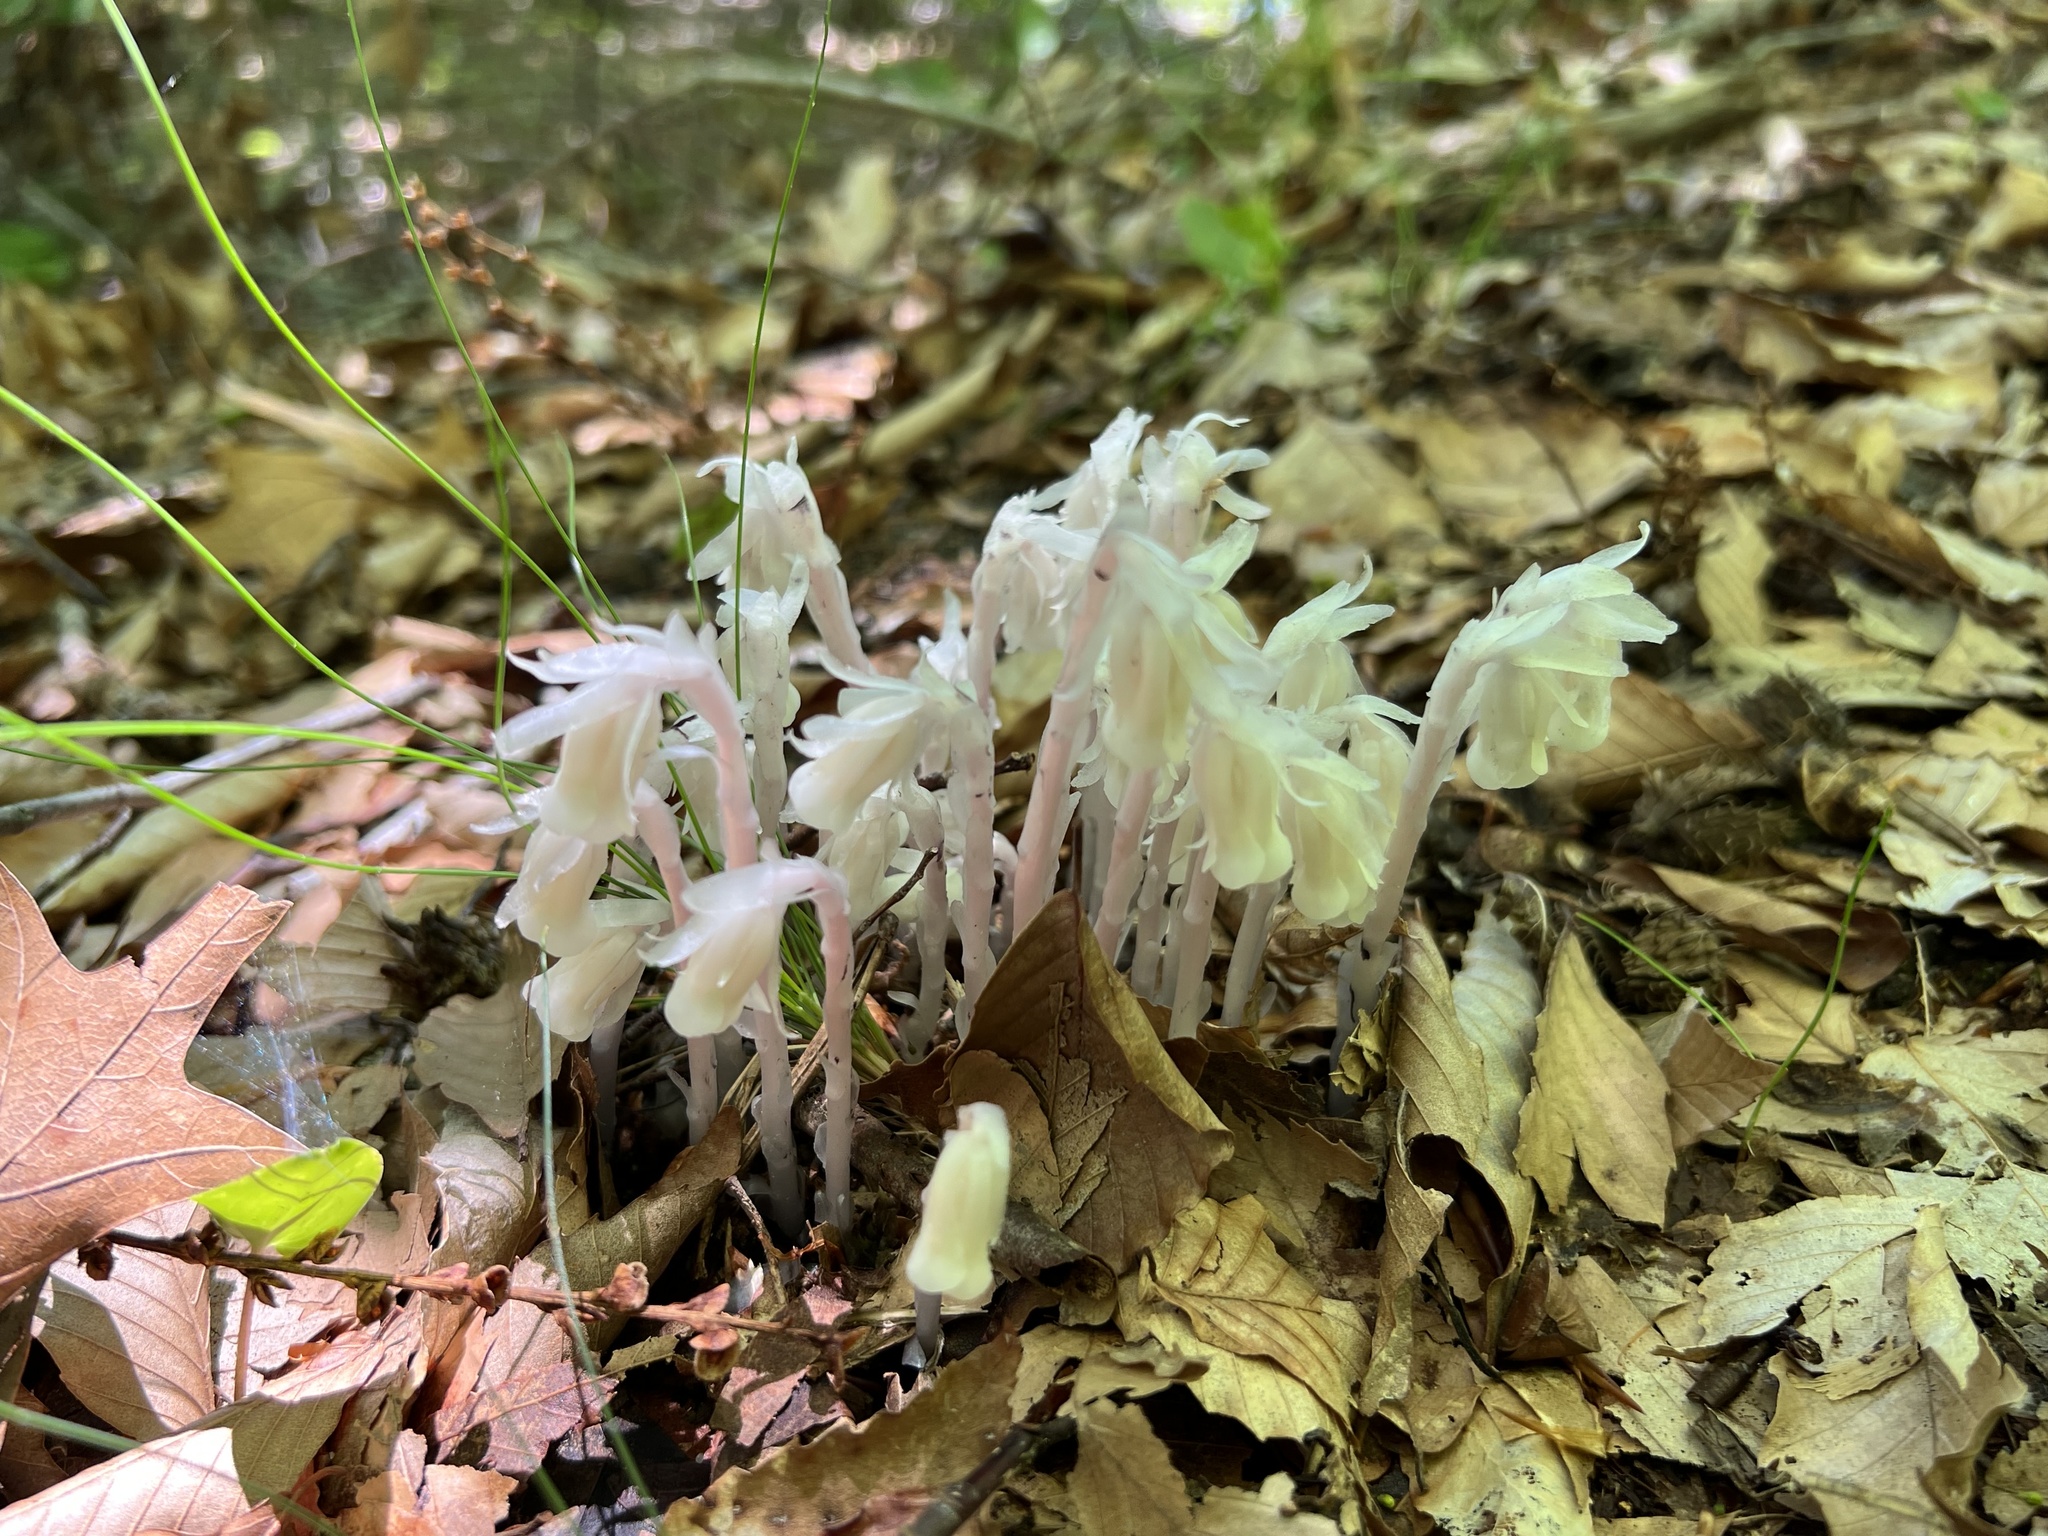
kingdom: Plantae
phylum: Tracheophyta
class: Magnoliopsida
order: Ericales
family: Ericaceae
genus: Monotropa
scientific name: Monotropa uniflora
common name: Convulsion root
